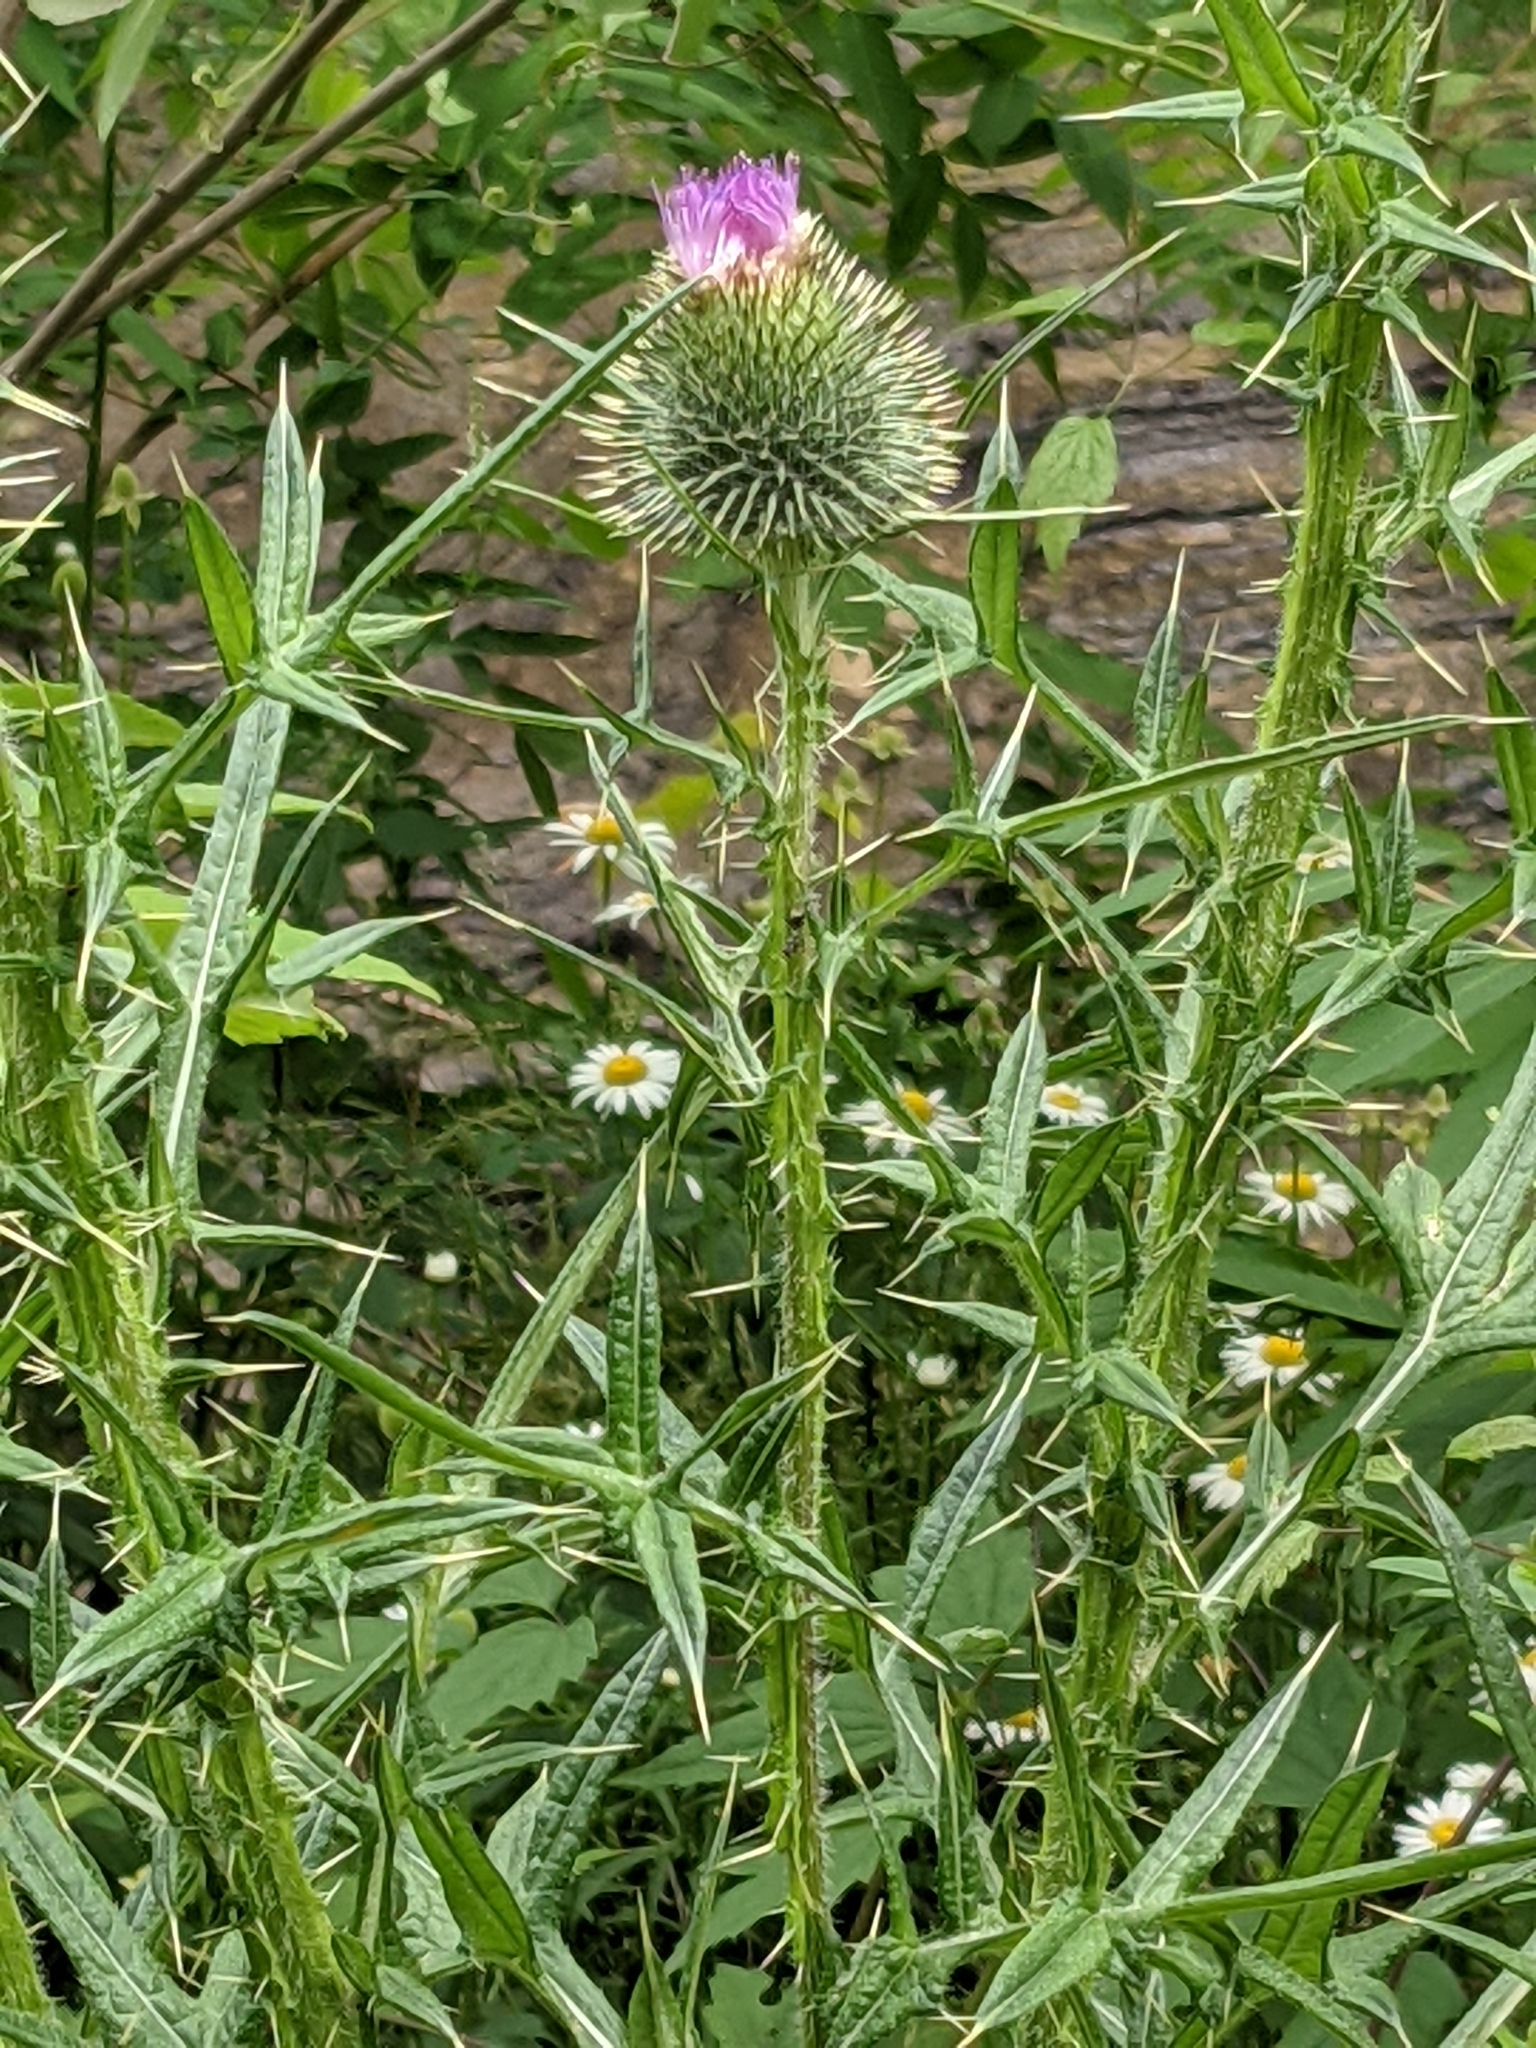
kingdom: Plantae
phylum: Tracheophyta
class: Magnoliopsida
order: Asterales
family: Asteraceae
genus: Cirsium
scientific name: Cirsium vulgare
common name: Bull thistle
